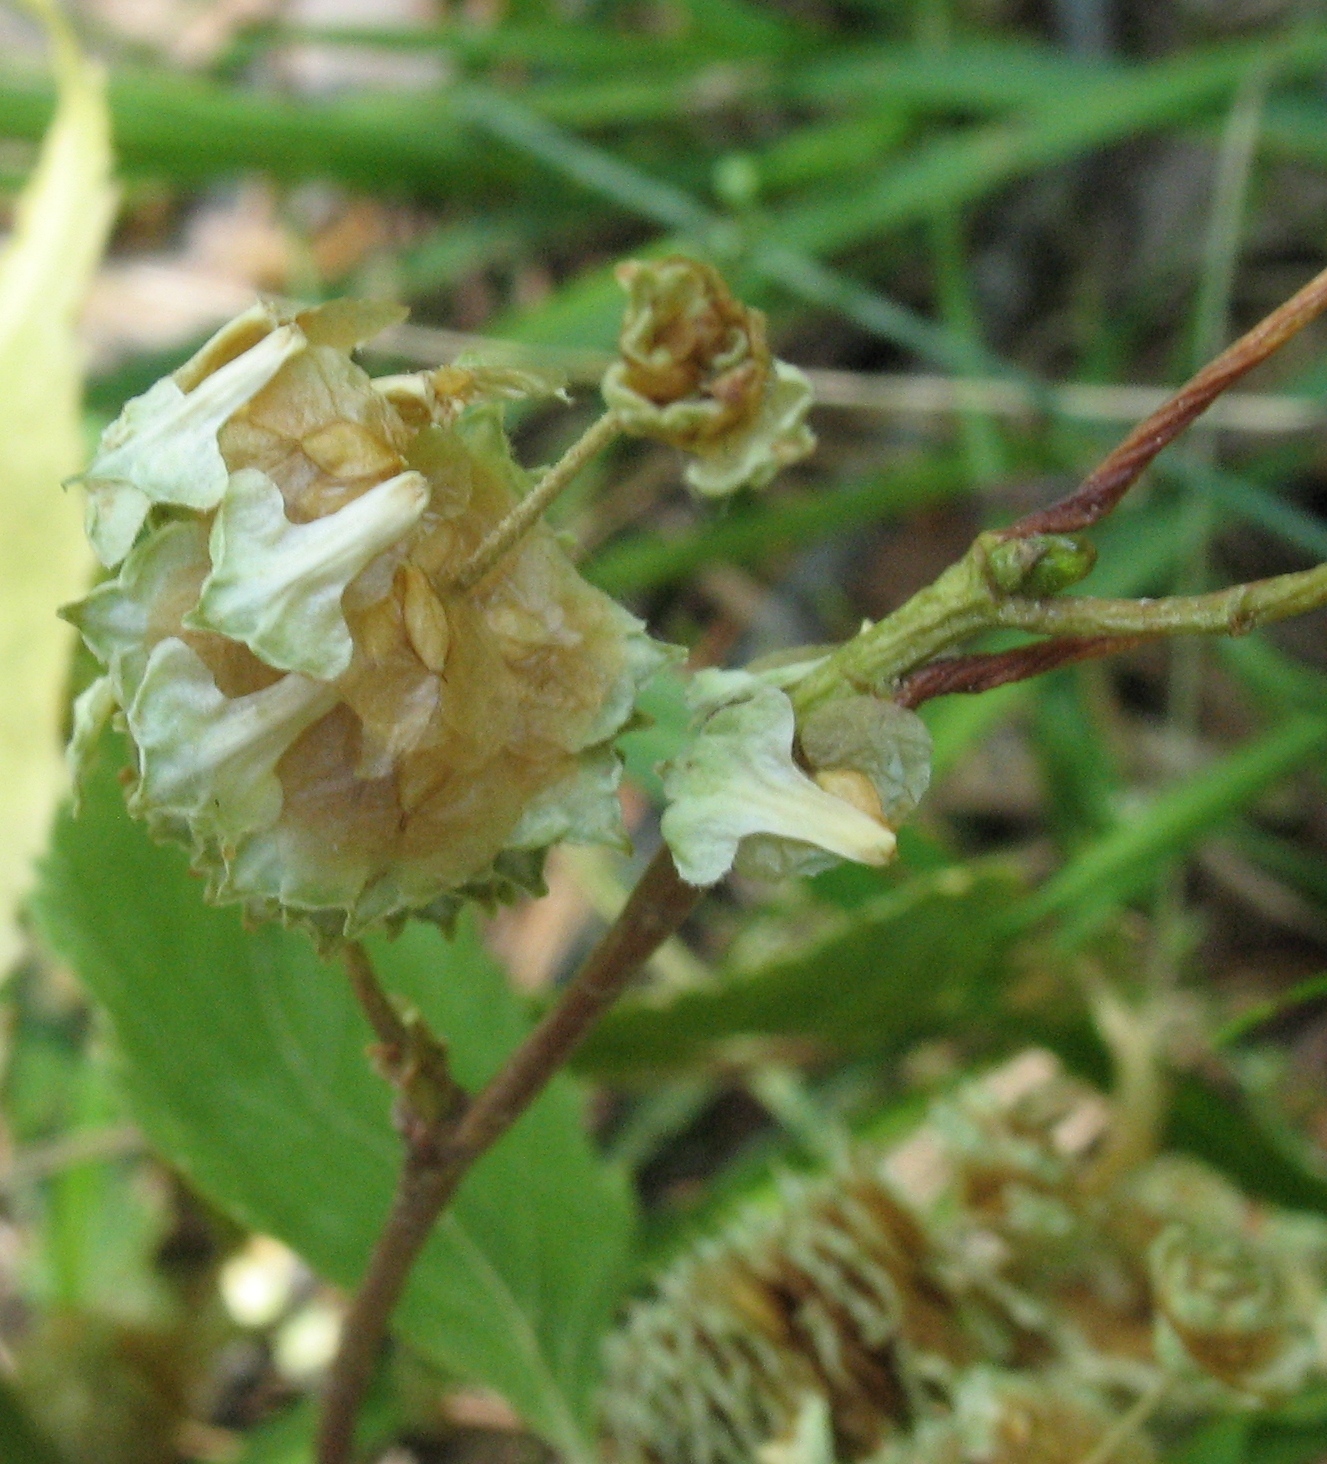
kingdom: Plantae
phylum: Tracheophyta
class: Magnoliopsida
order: Fagales
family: Betulaceae
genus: Betula
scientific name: Betula pendula
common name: Silver birch
